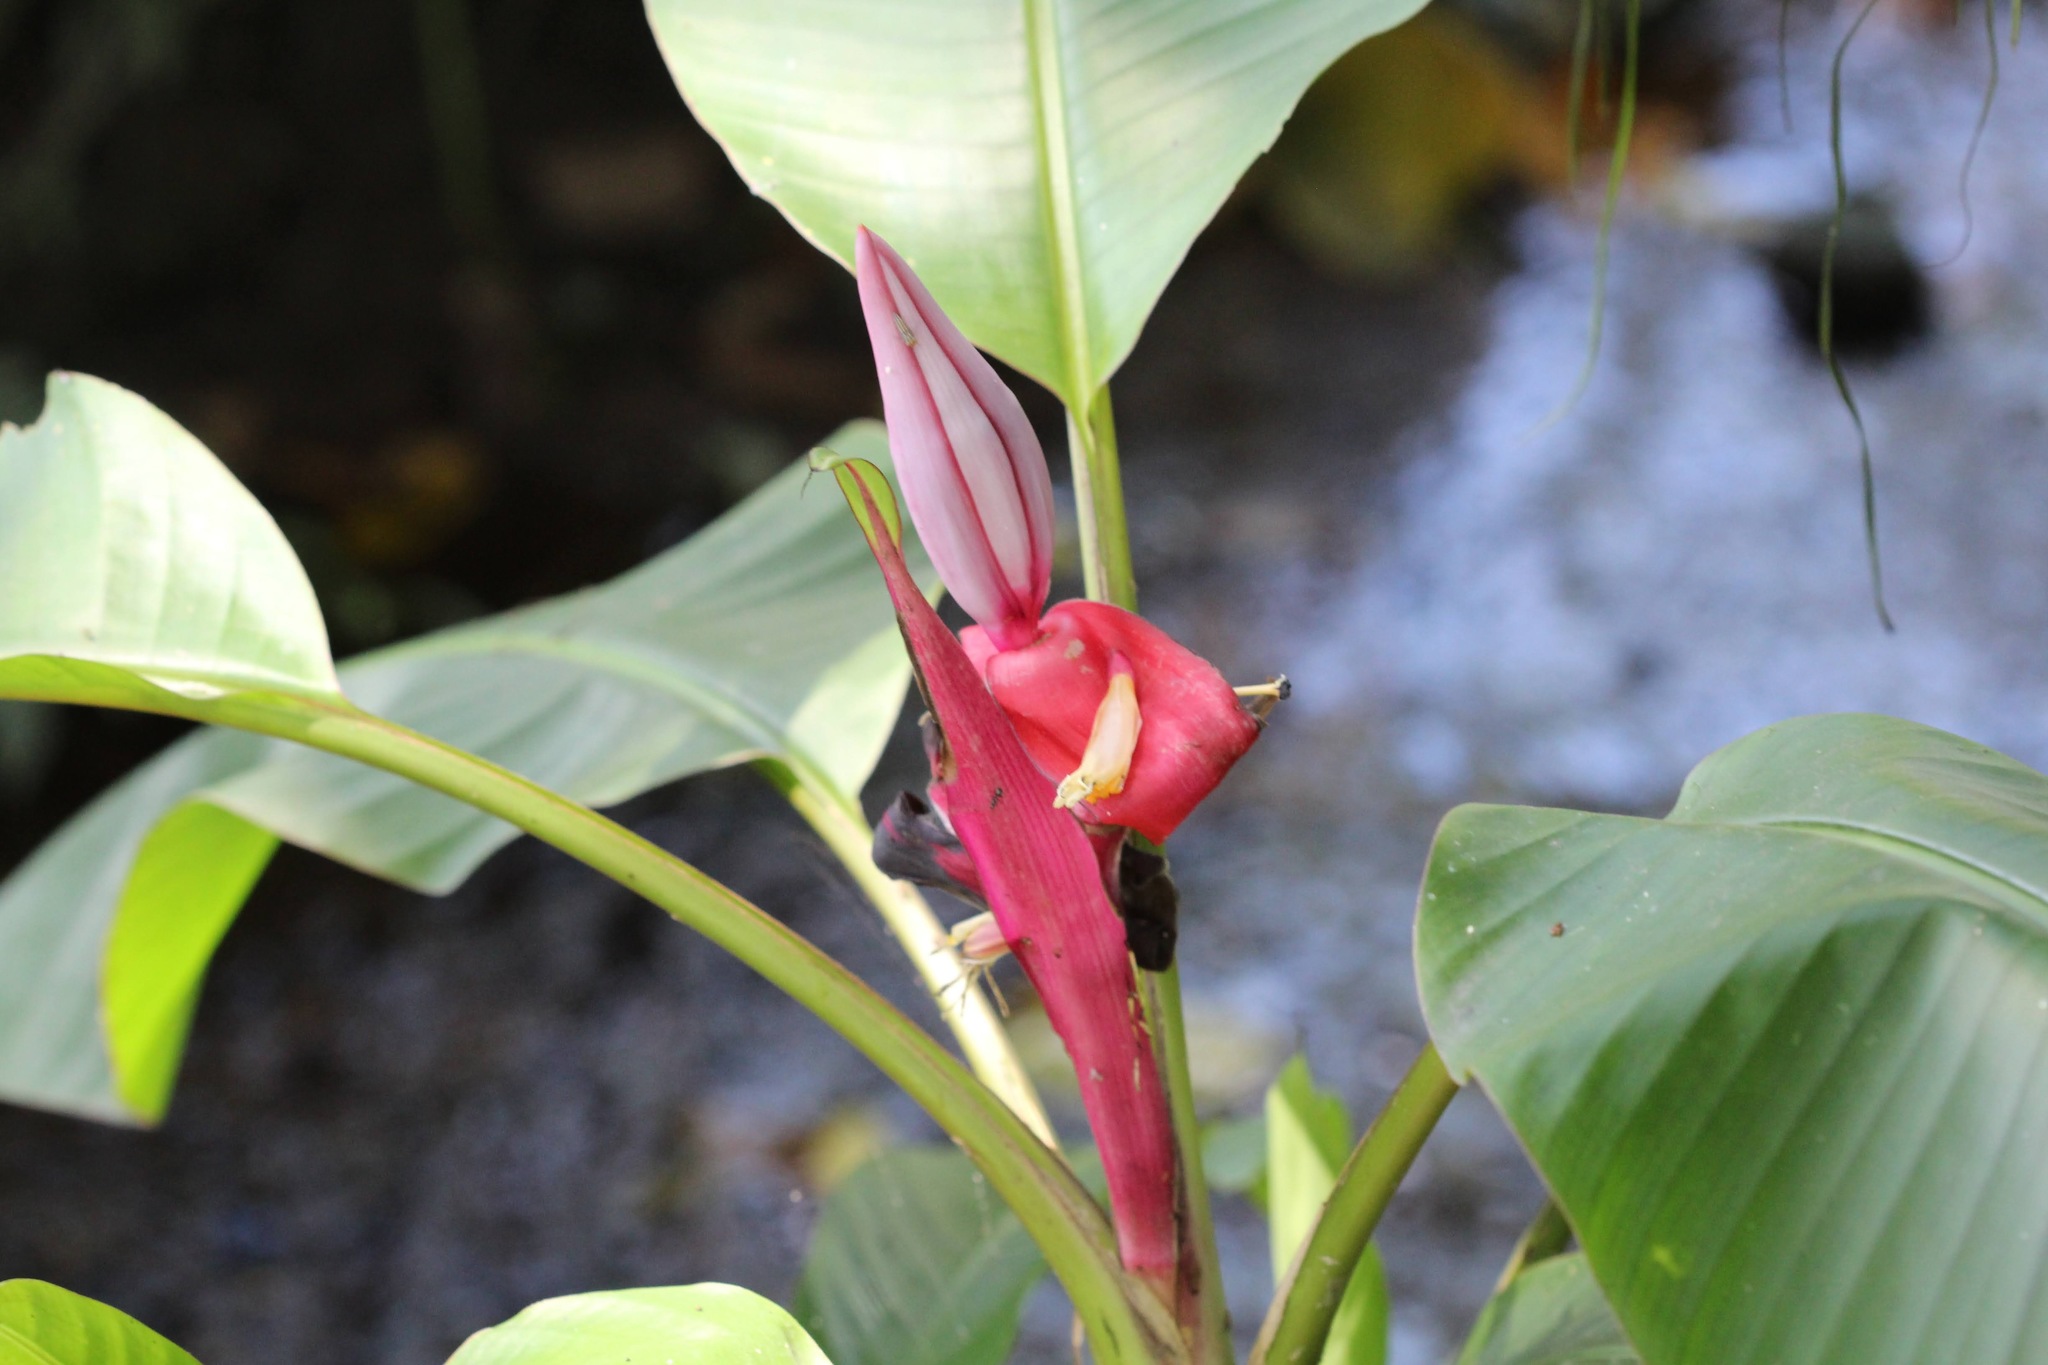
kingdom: Plantae
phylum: Tracheophyta
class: Liliopsida
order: Zingiberales
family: Musaceae
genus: Musa
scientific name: Musa velutina
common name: Pink velvet banana
